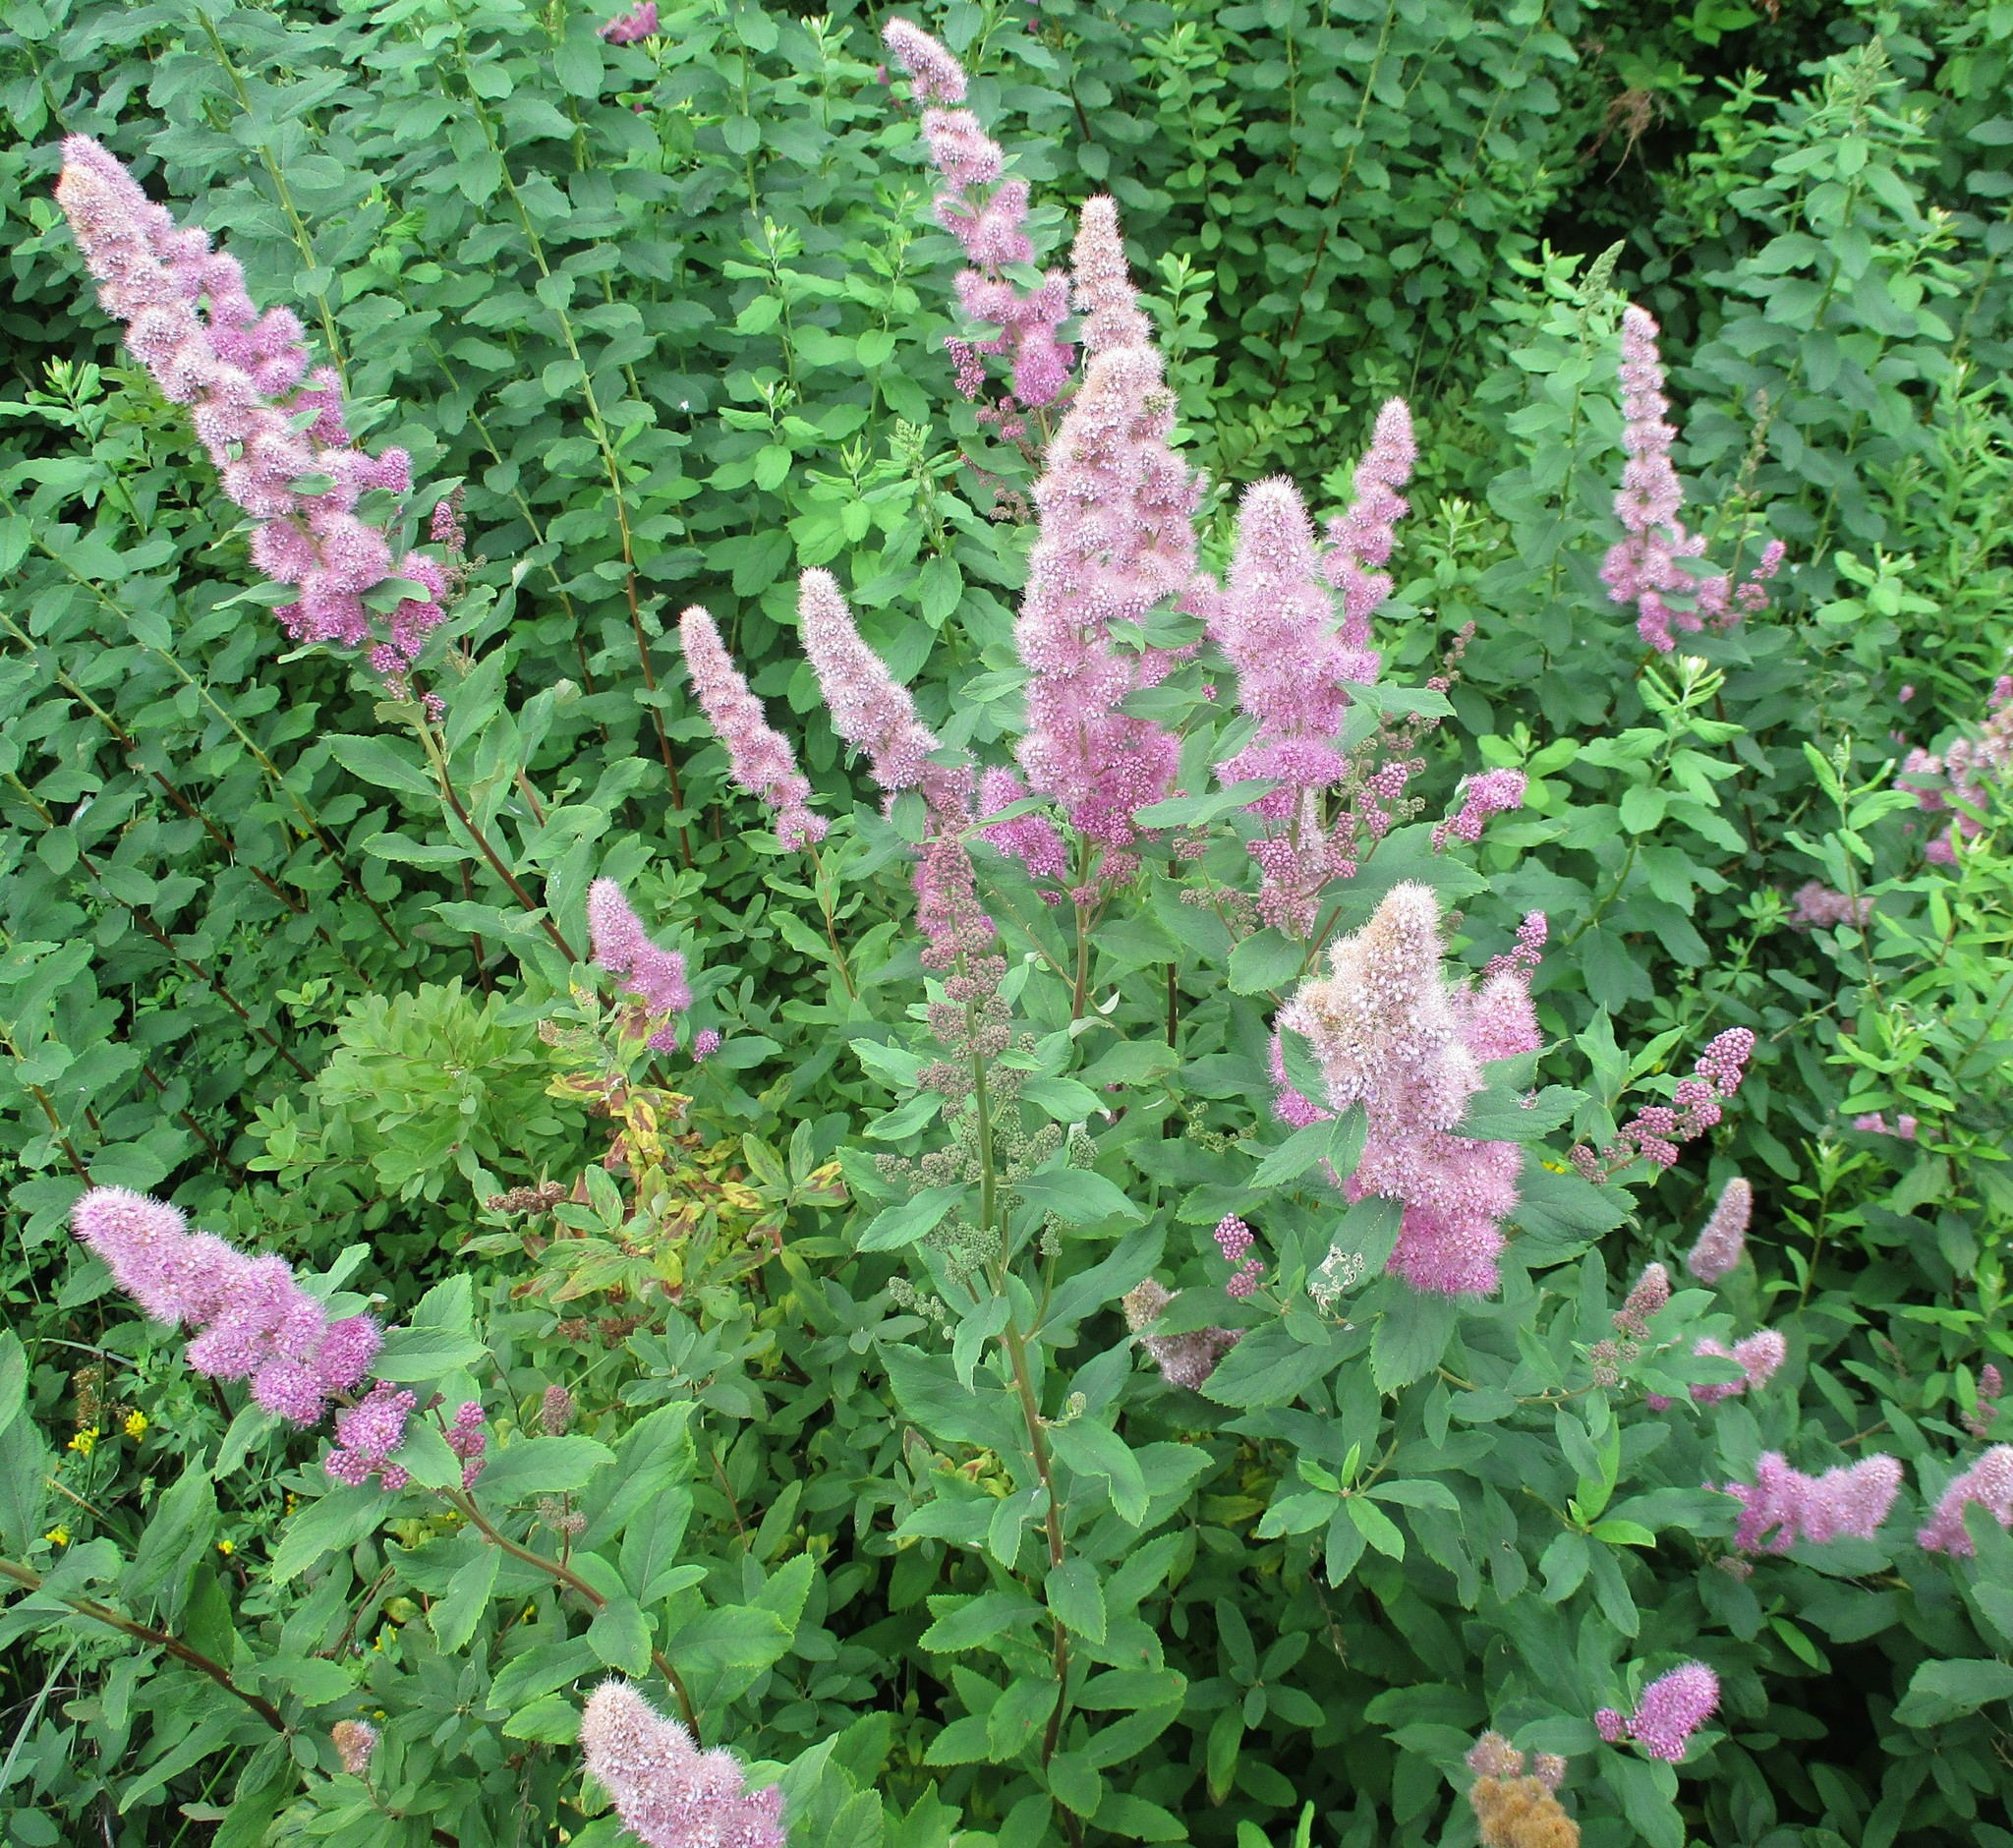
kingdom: Plantae
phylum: Tracheophyta
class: Magnoliopsida
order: Rosales
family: Rosaceae
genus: Spiraea
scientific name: Spiraea douglasii
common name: Steeplebush
